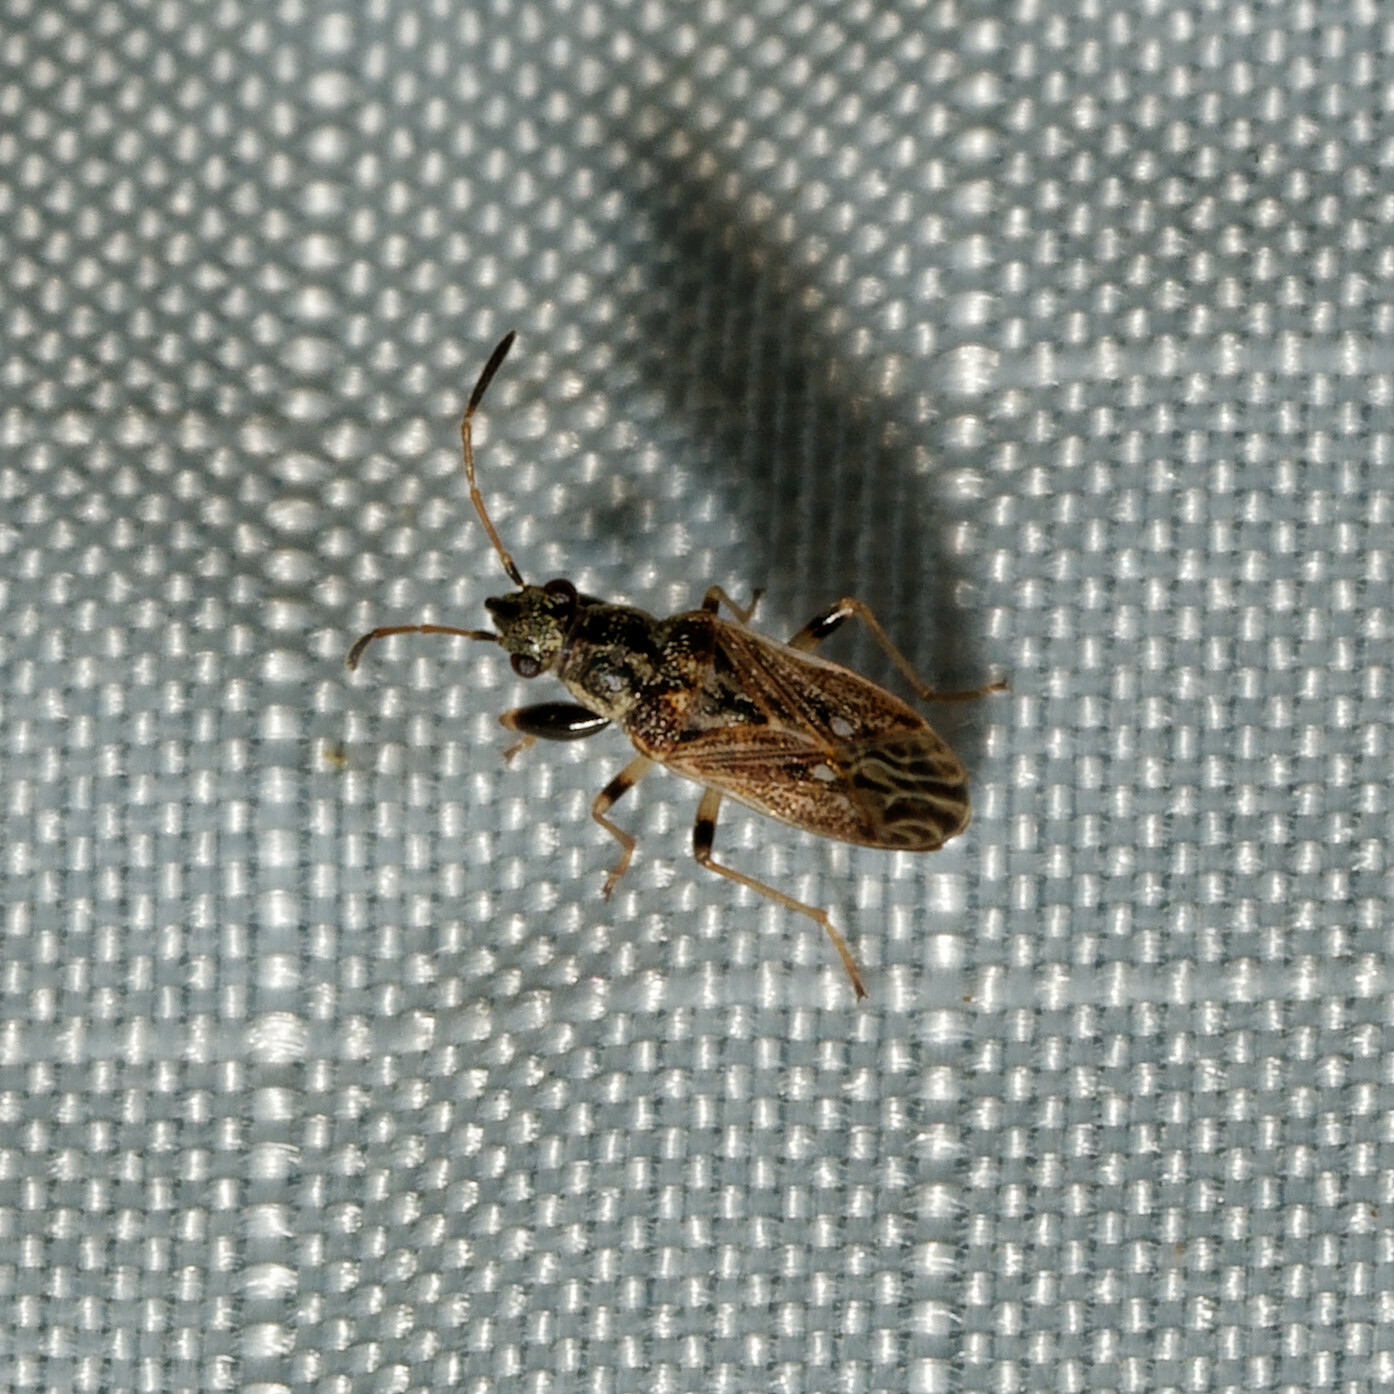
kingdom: Animalia
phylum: Arthropoda
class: Insecta
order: Hemiptera
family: Rhyparochromidae
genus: Pseudopachybrachius
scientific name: Pseudopachybrachius basalis
